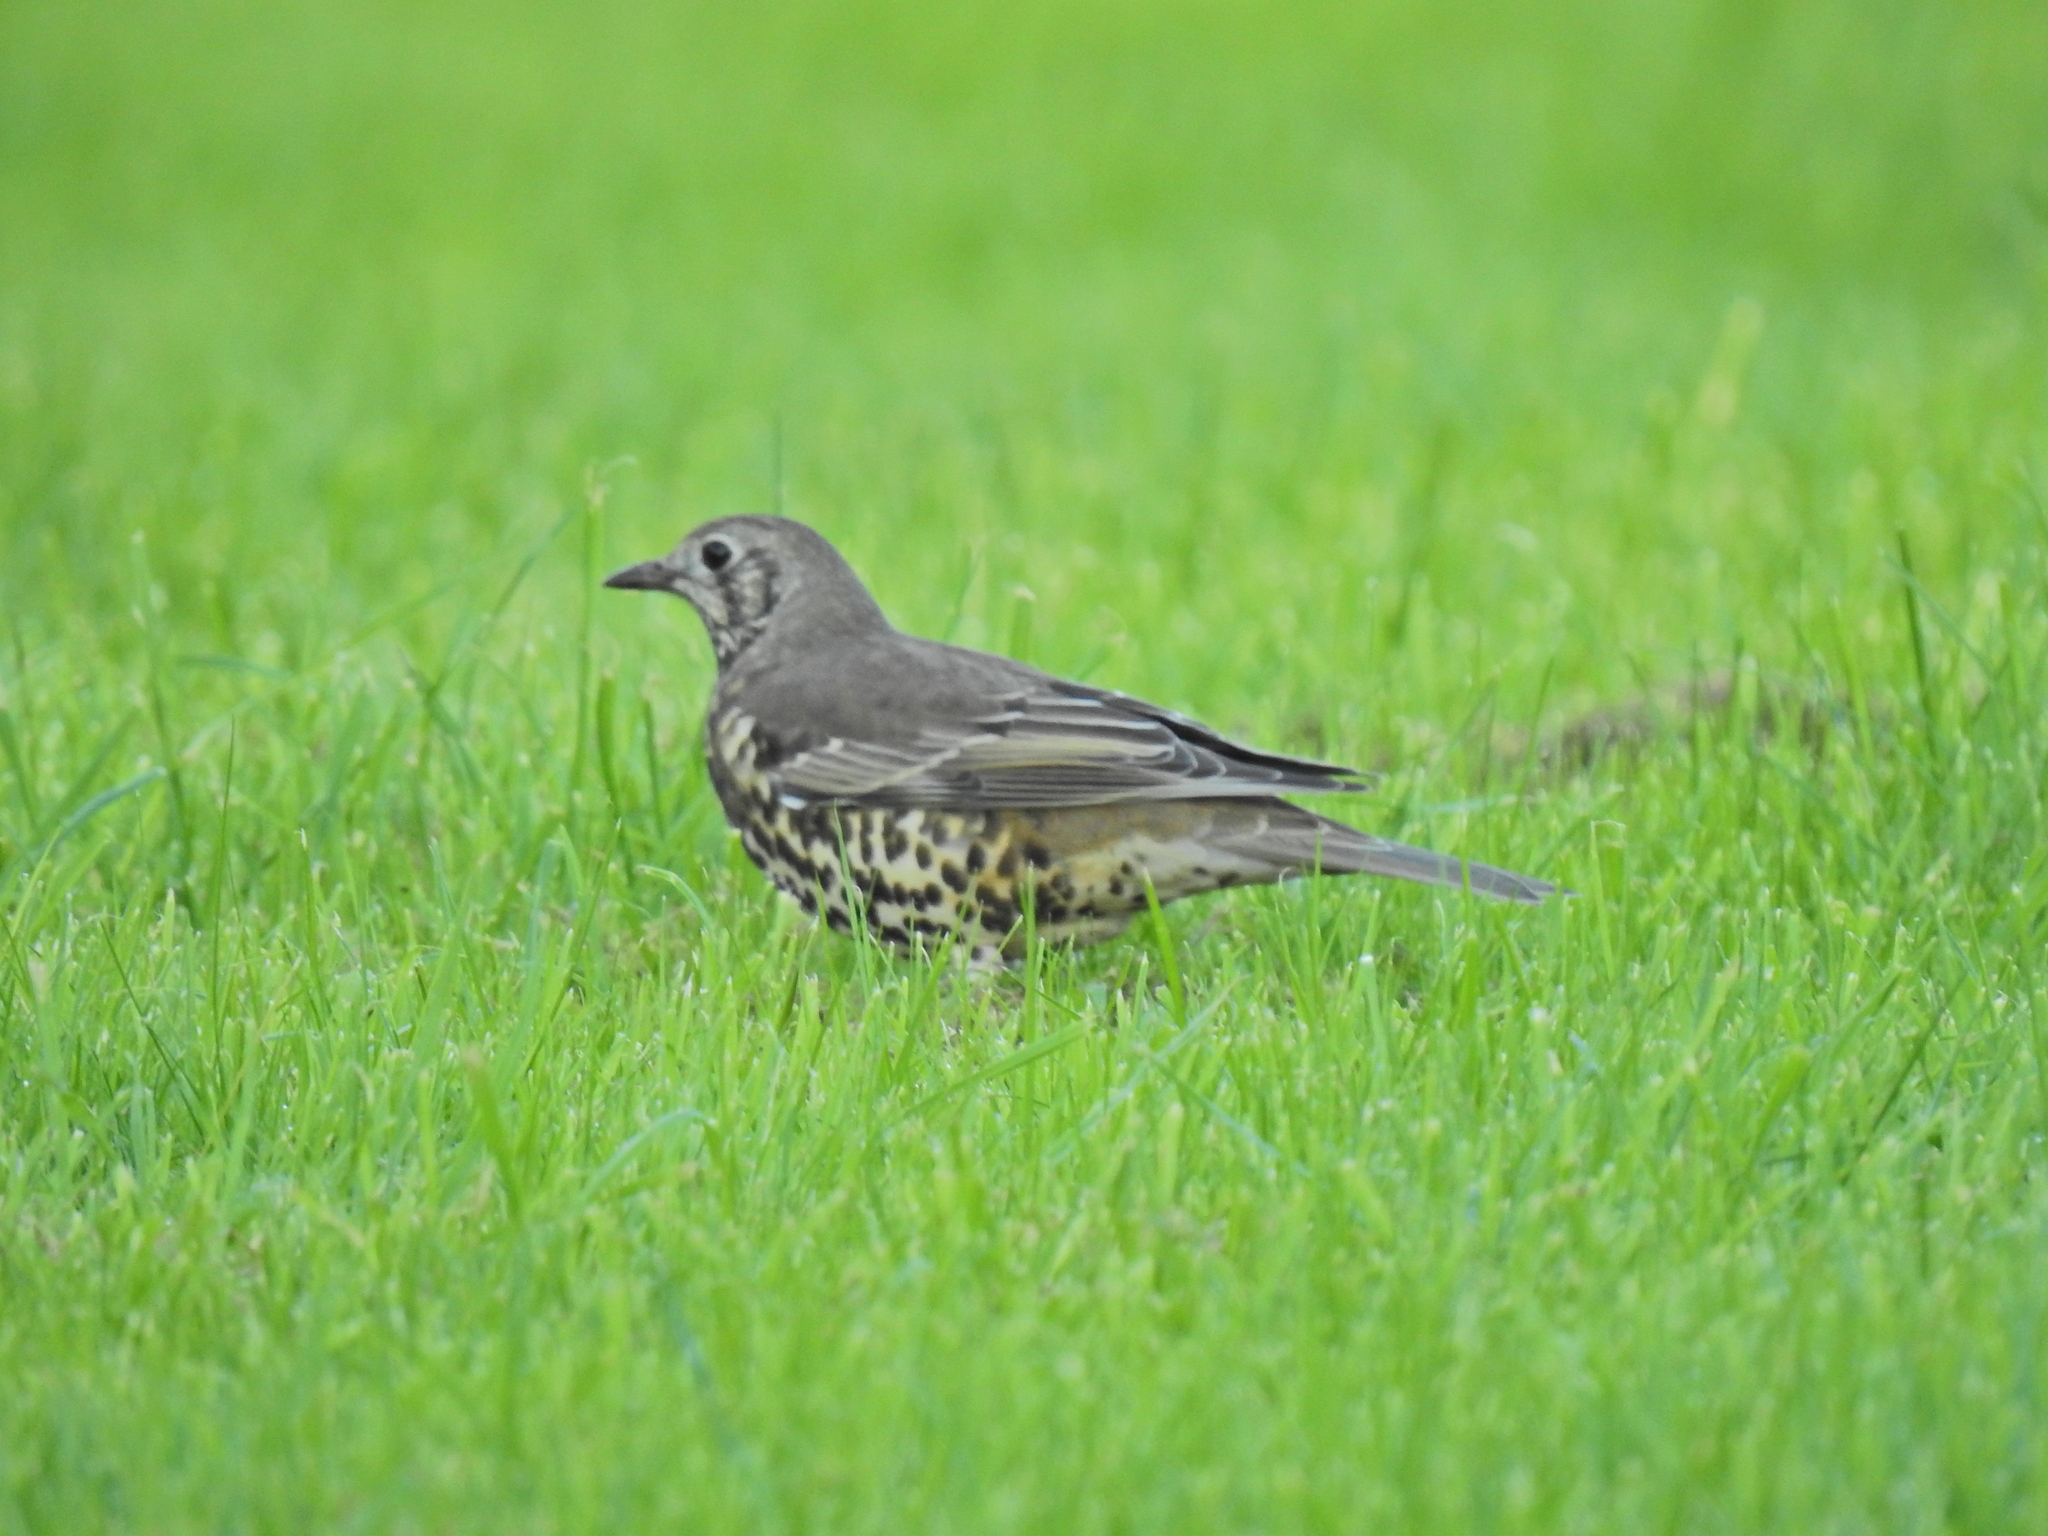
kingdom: Animalia
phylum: Chordata
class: Aves
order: Passeriformes
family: Turdidae
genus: Turdus
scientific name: Turdus viscivorus
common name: Mistle thrush
